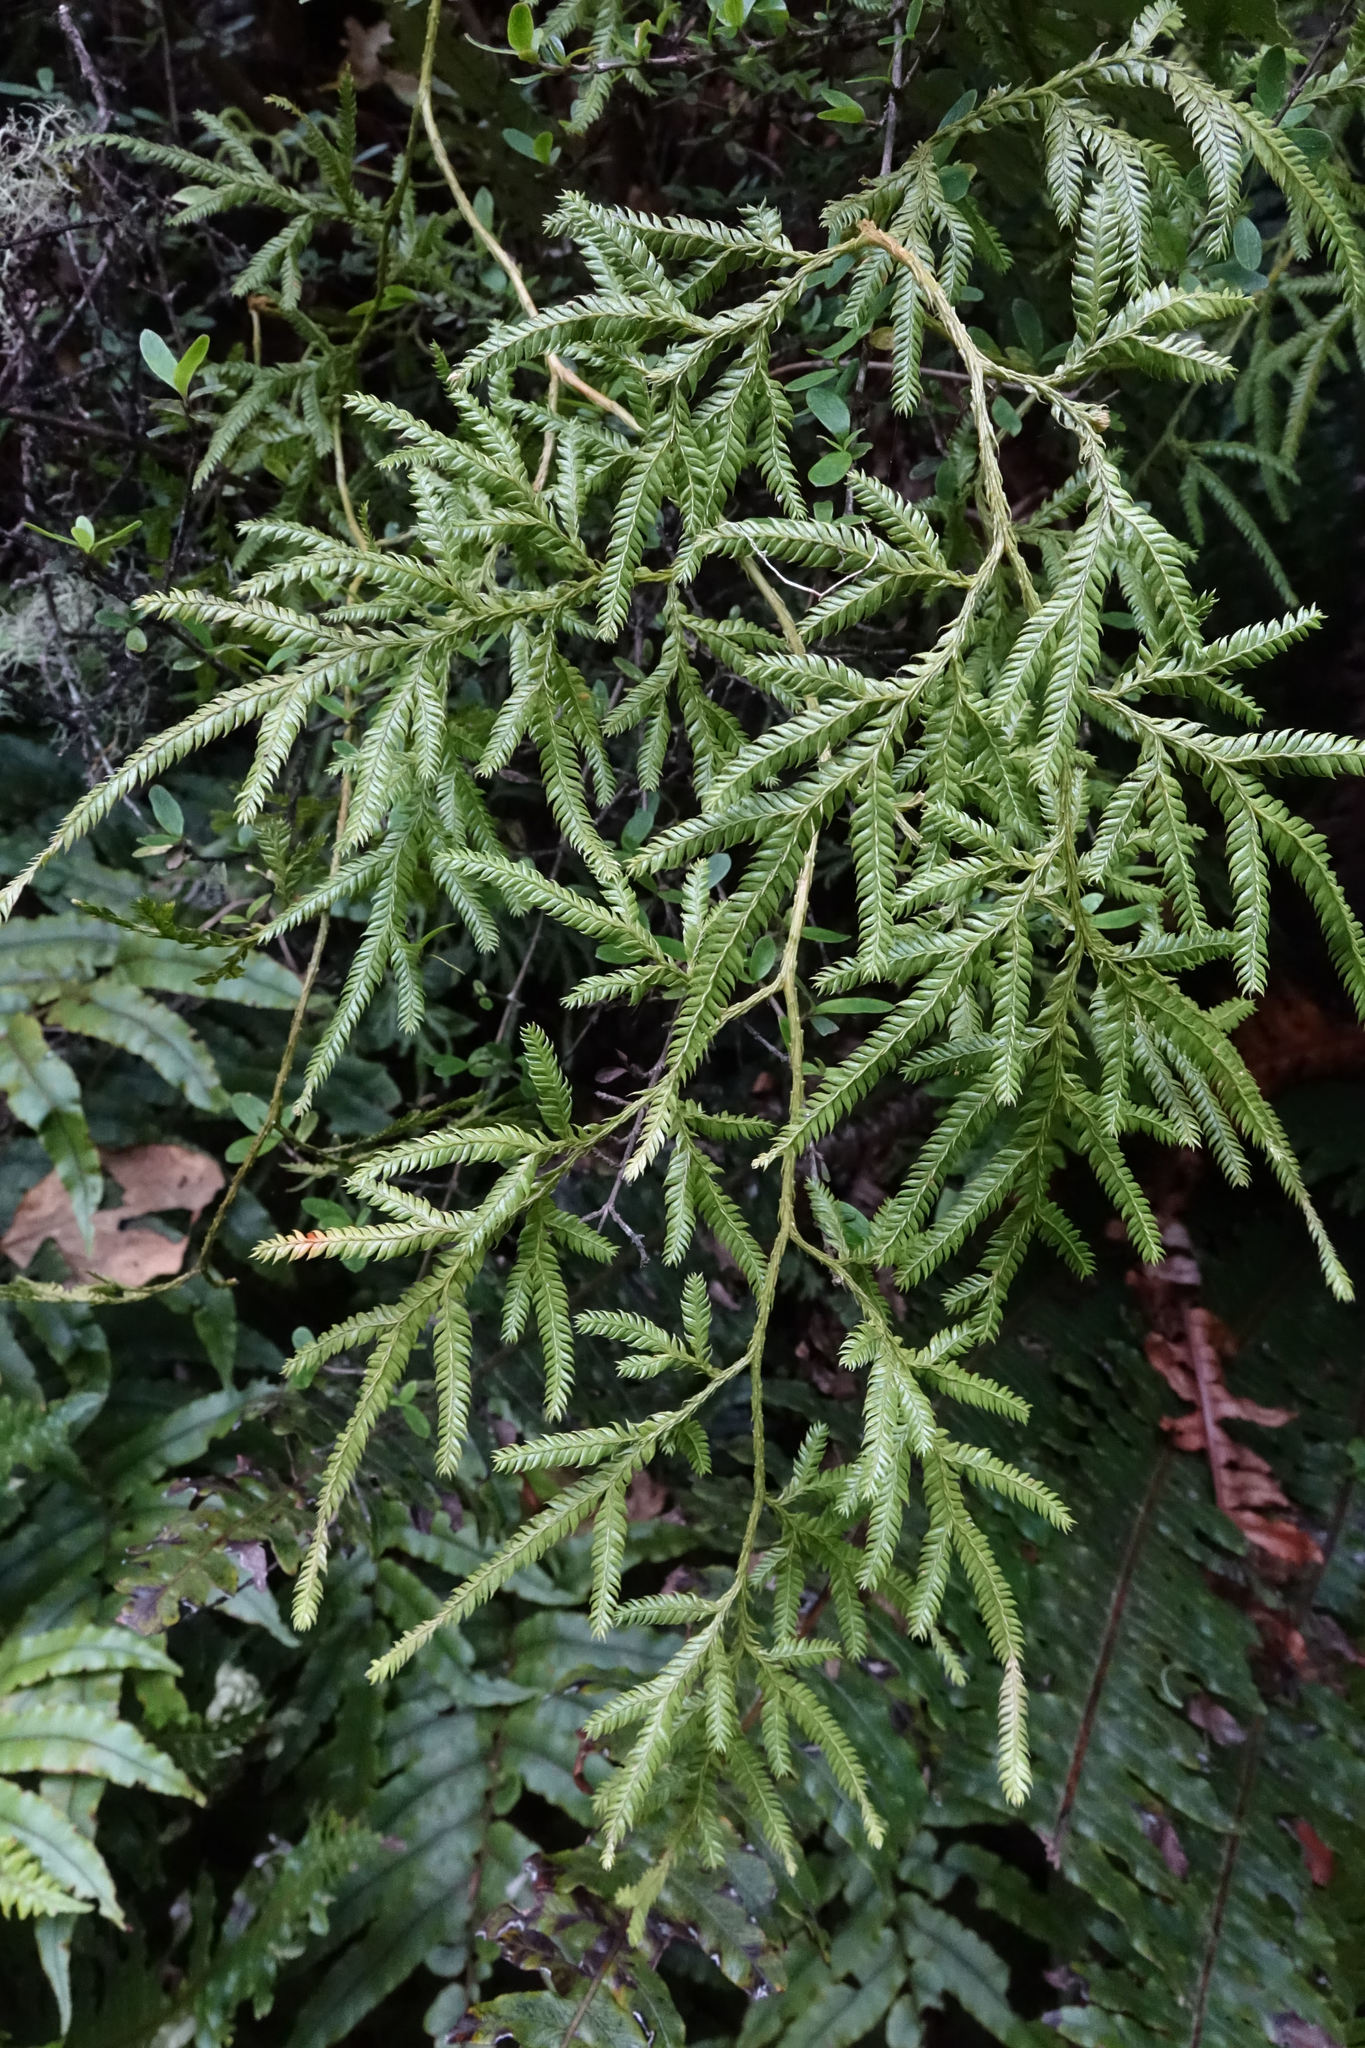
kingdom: Plantae
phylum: Tracheophyta
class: Lycopodiopsida
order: Lycopodiales
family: Lycopodiaceae
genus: Lycopodium
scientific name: Lycopodium volubile
